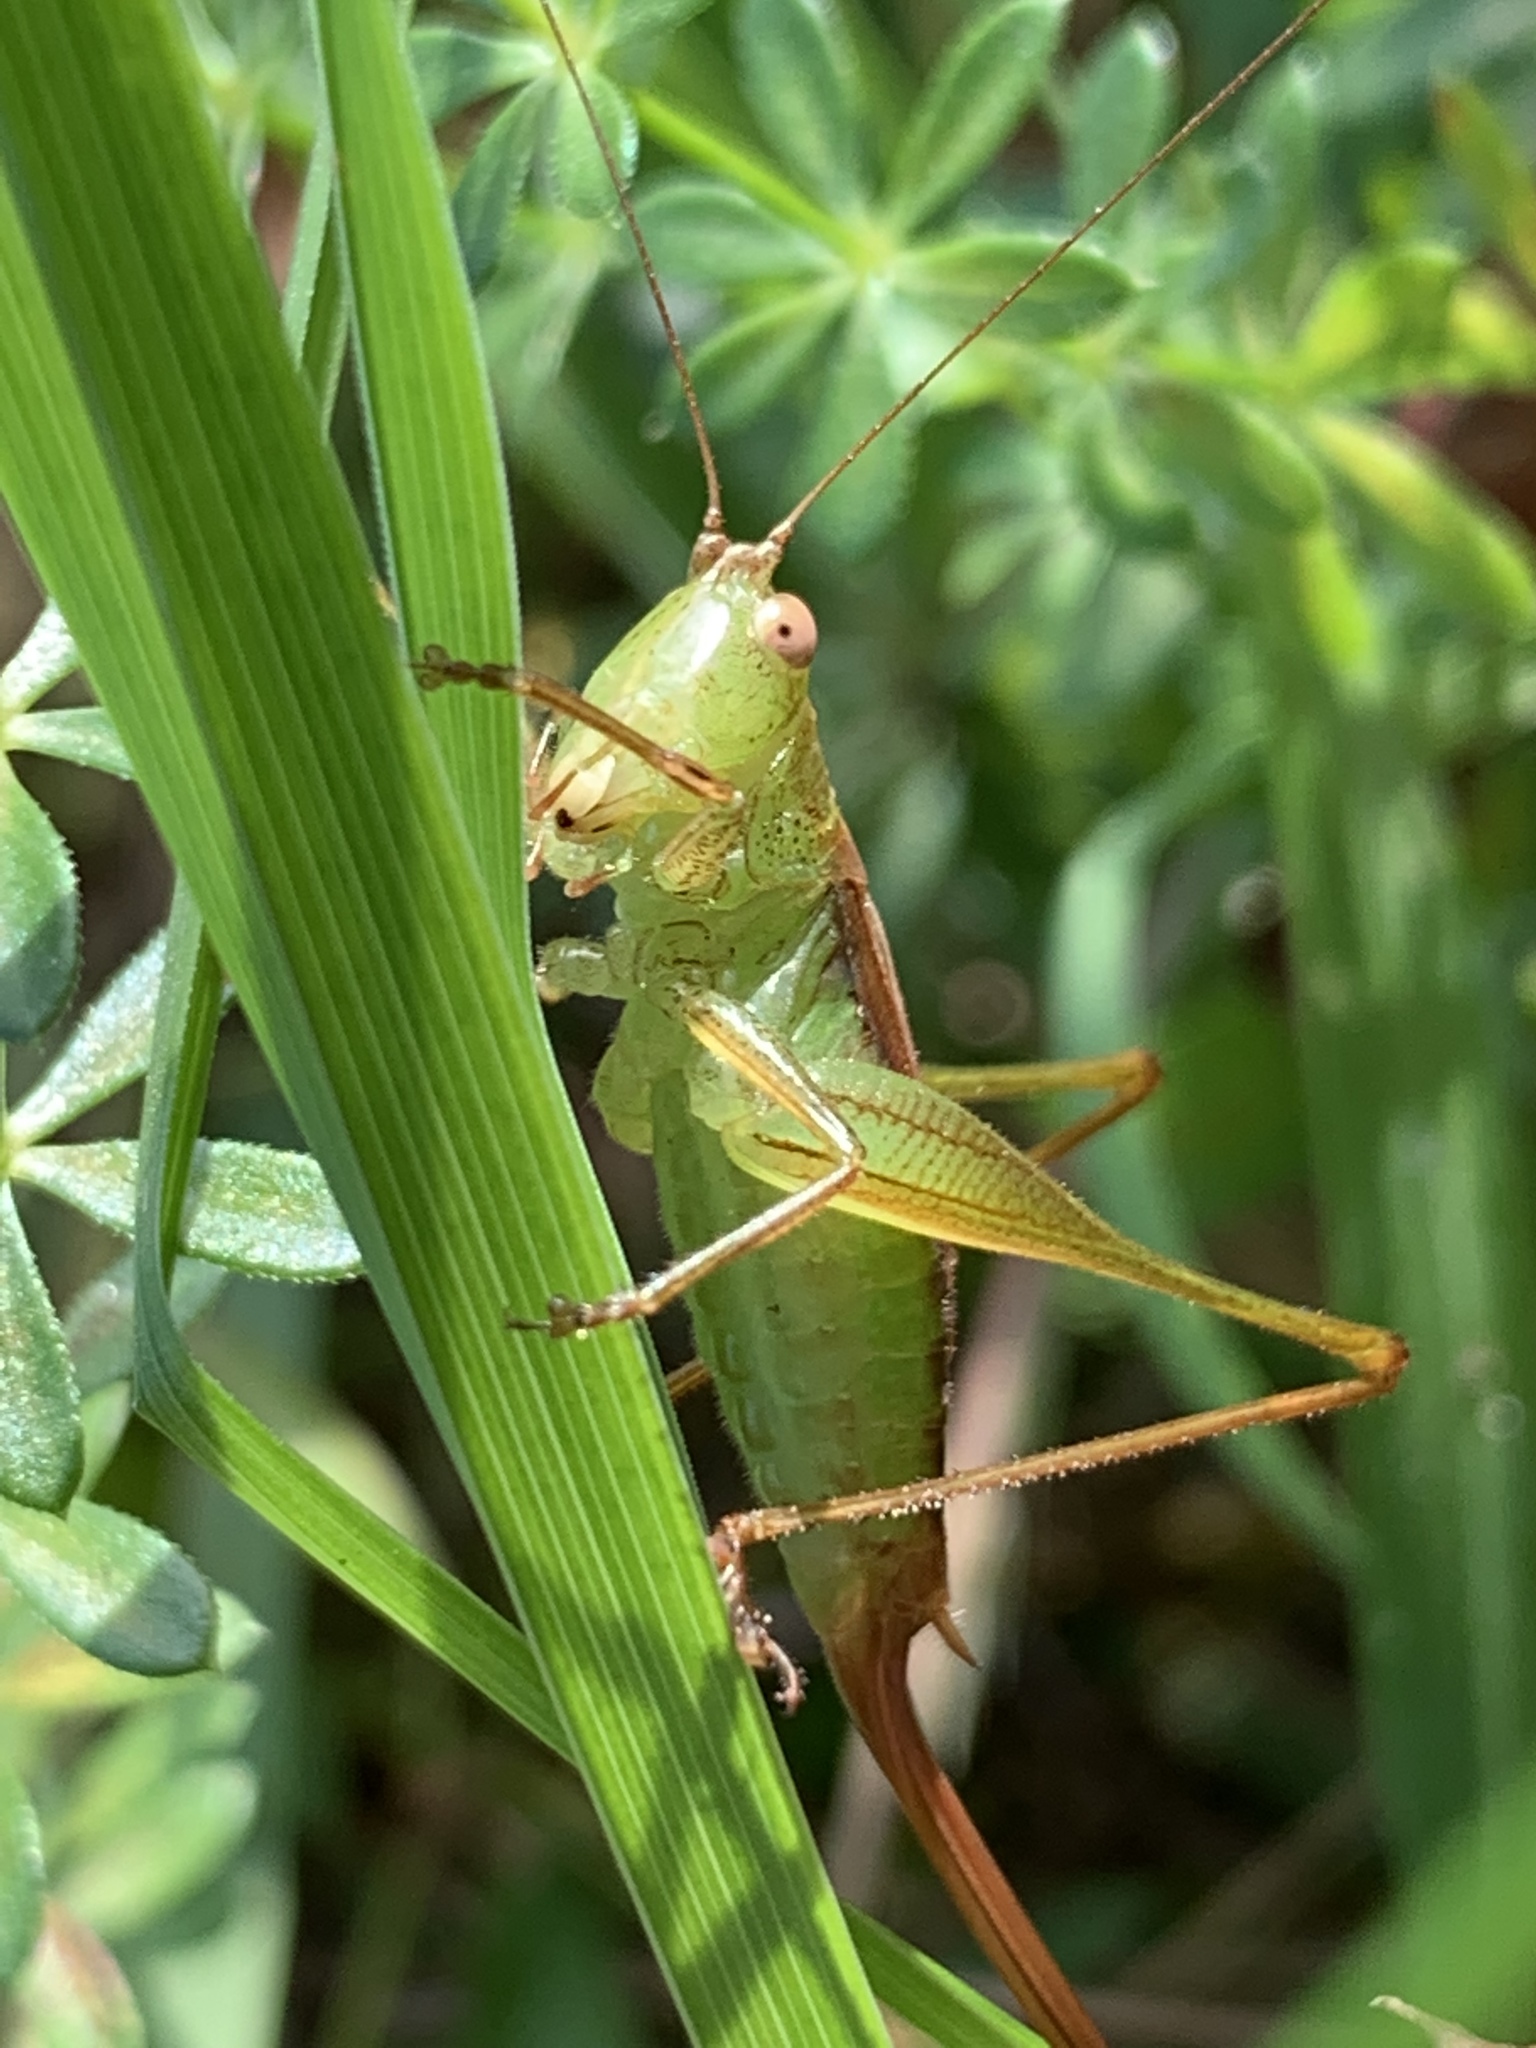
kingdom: Animalia
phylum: Arthropoda
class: Insecta
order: Orthoptera
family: Tettigoniidae
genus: Conocephalus
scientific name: Conocephalus brevipennis
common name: Short-winged meadow katydid
